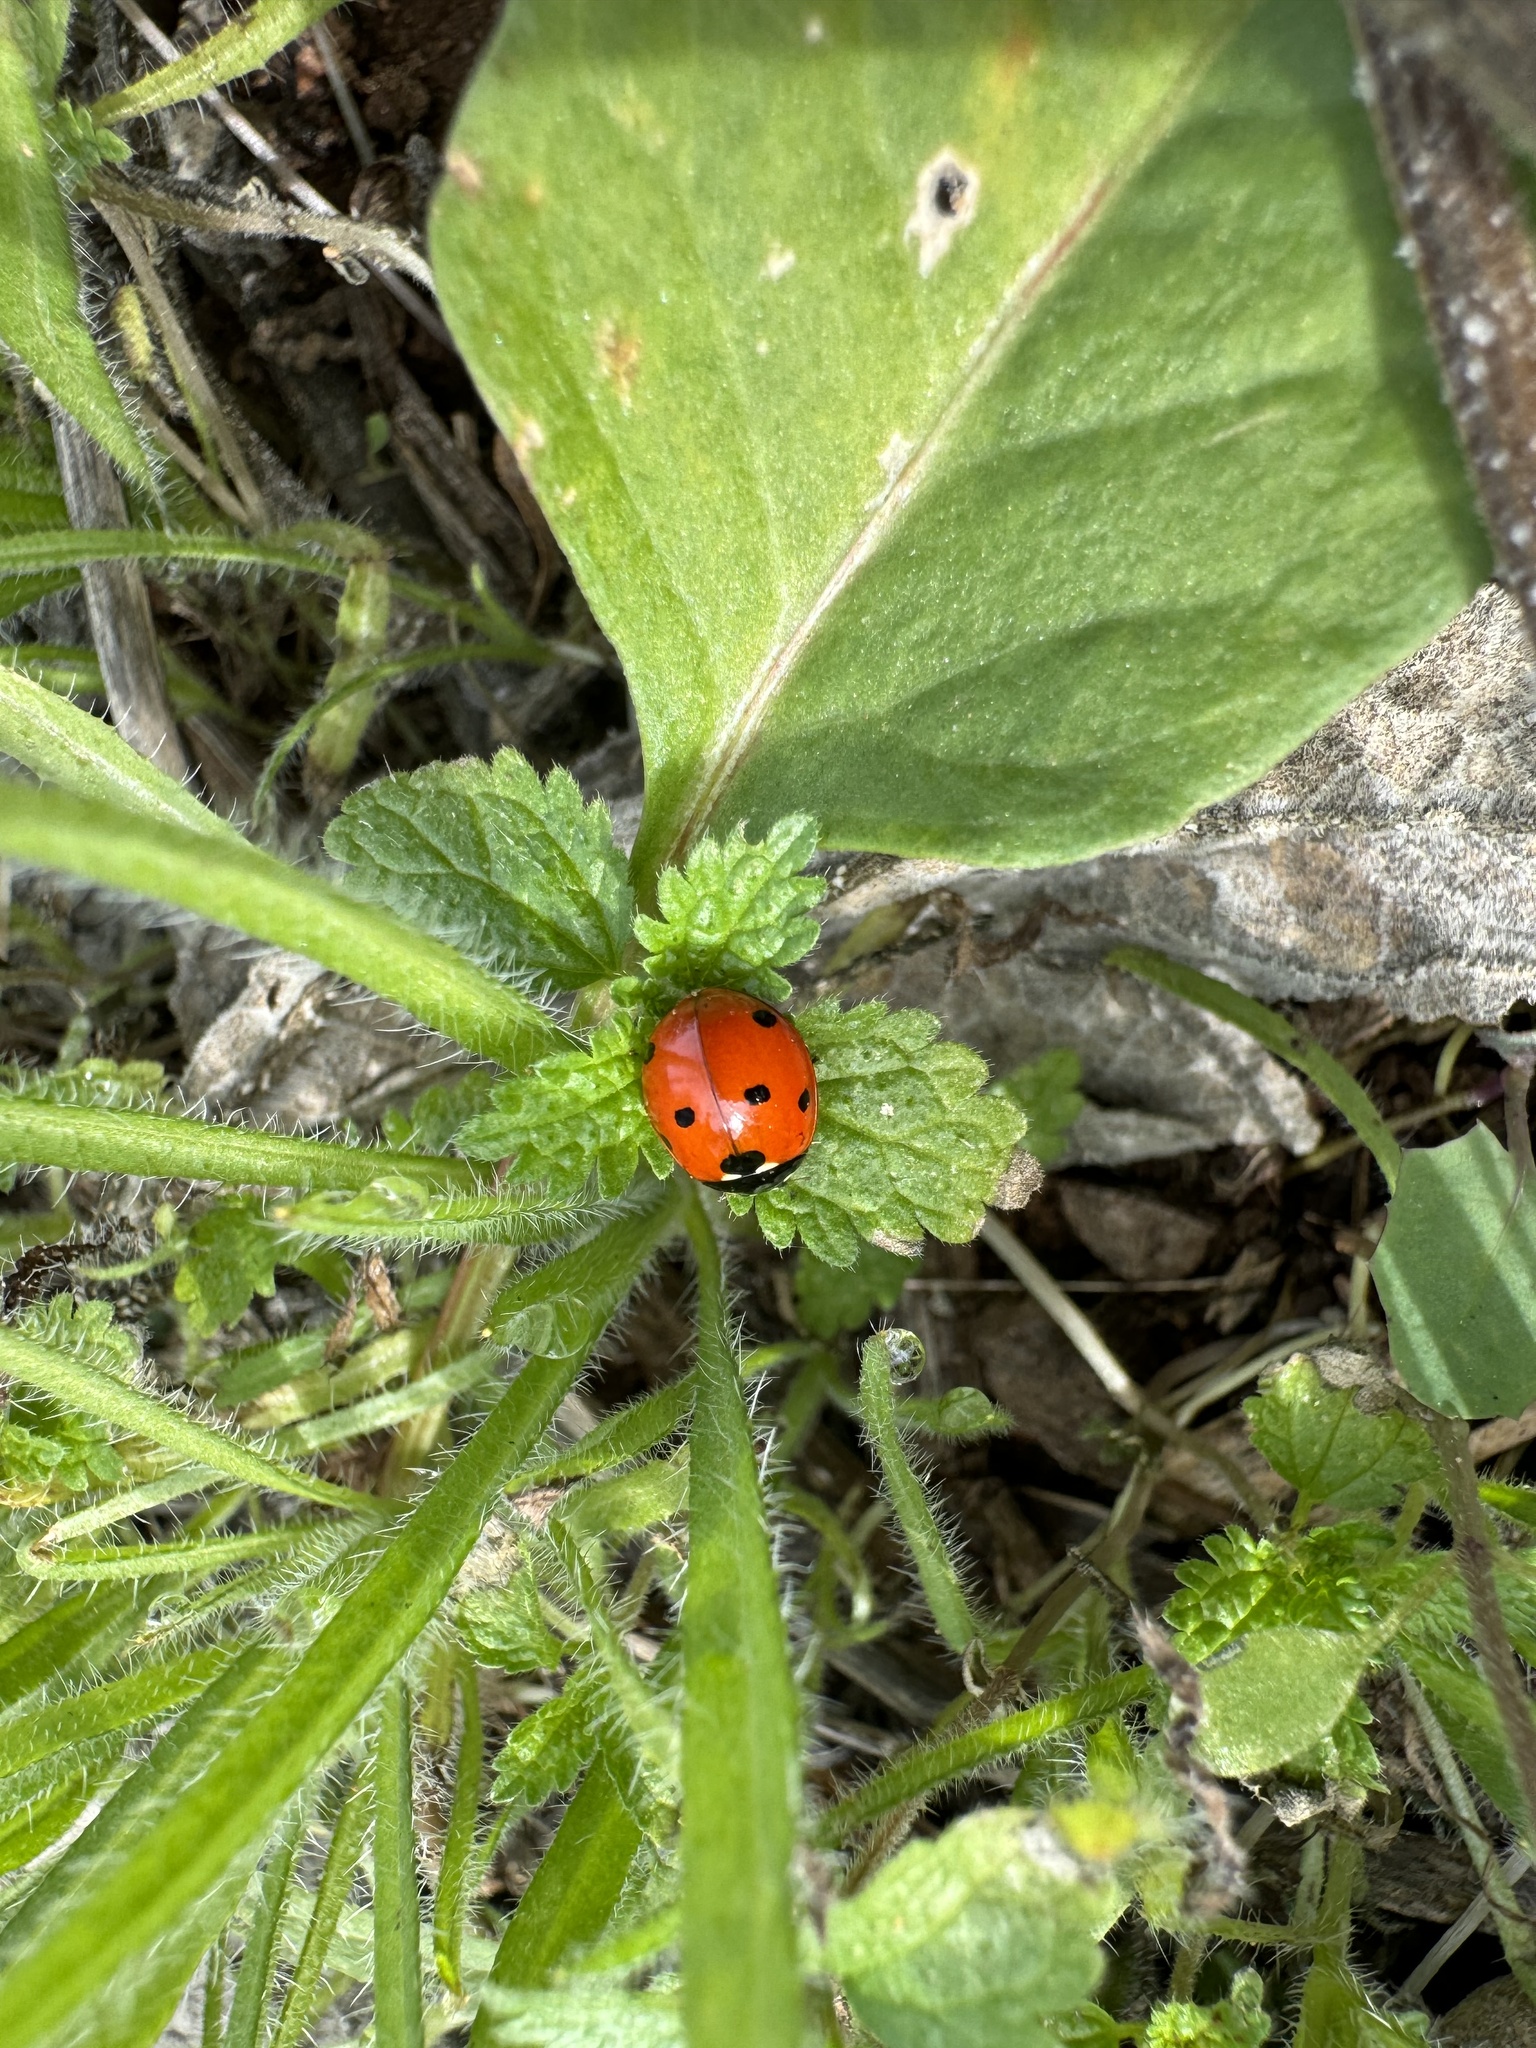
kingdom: Animalia
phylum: Arthropoda
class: Insecta
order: Coleoptera
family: Coccinellidae
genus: Coccinella
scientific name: Coccinella septempunctata
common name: Sevenspotted lady beetle
